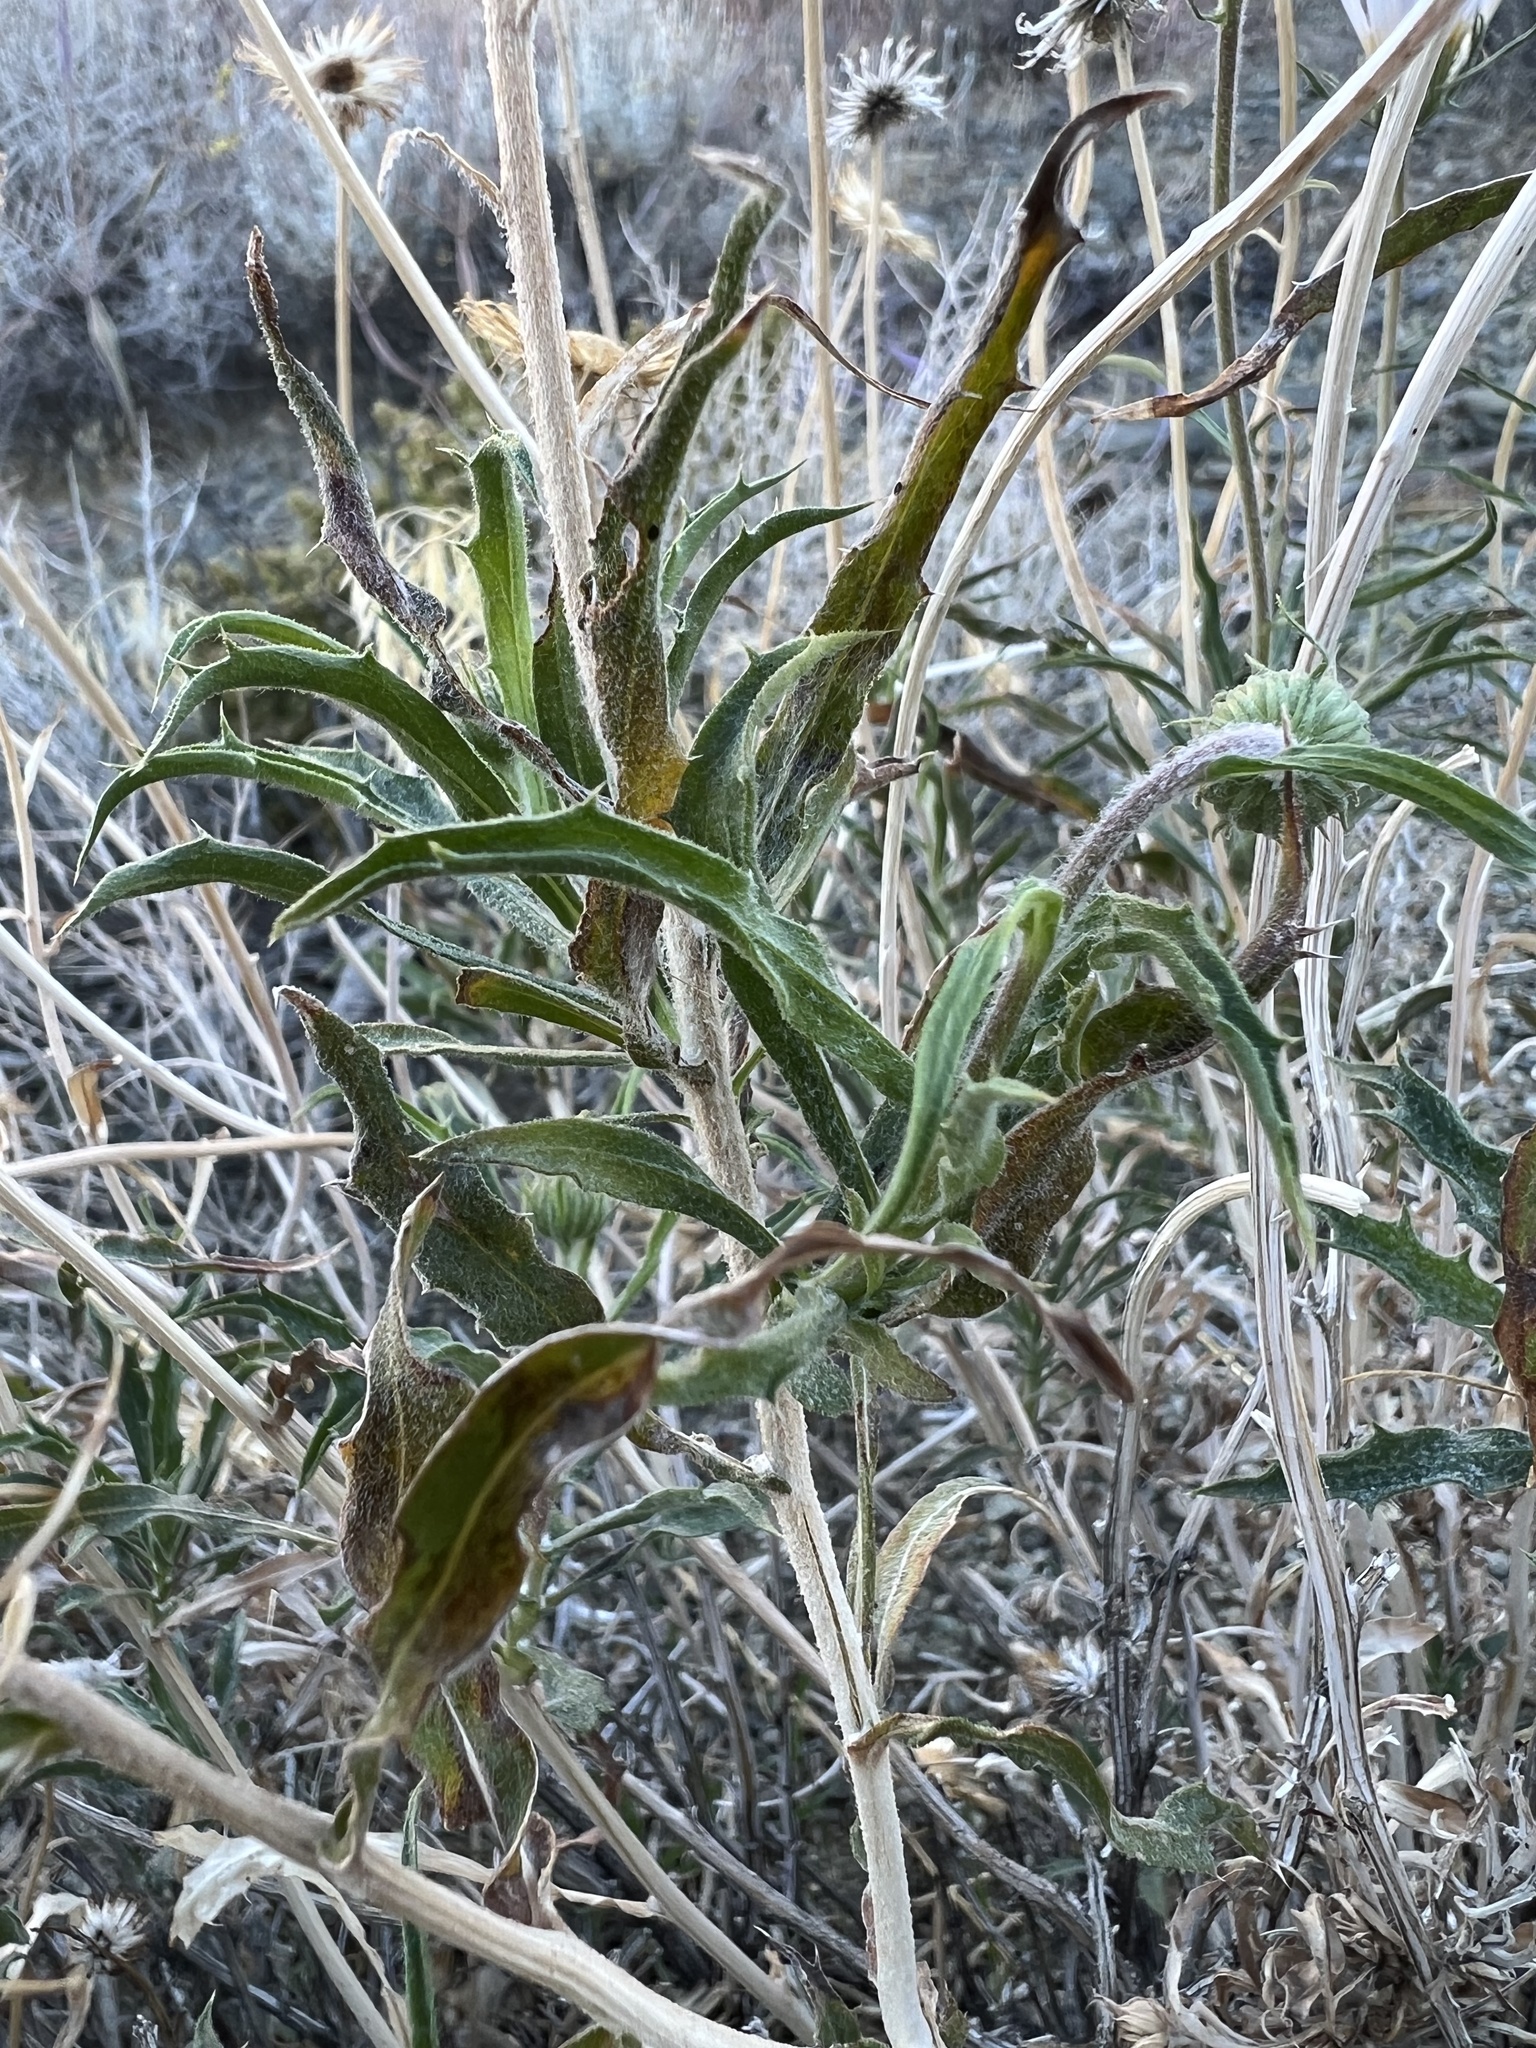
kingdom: Plantae
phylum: Tracheophyta
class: Magnoliopsida
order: Asterales
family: Asteraceae
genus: Xylorhiza
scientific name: Xylorhiza tortifolia
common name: Hurt-leaf woody-aster
